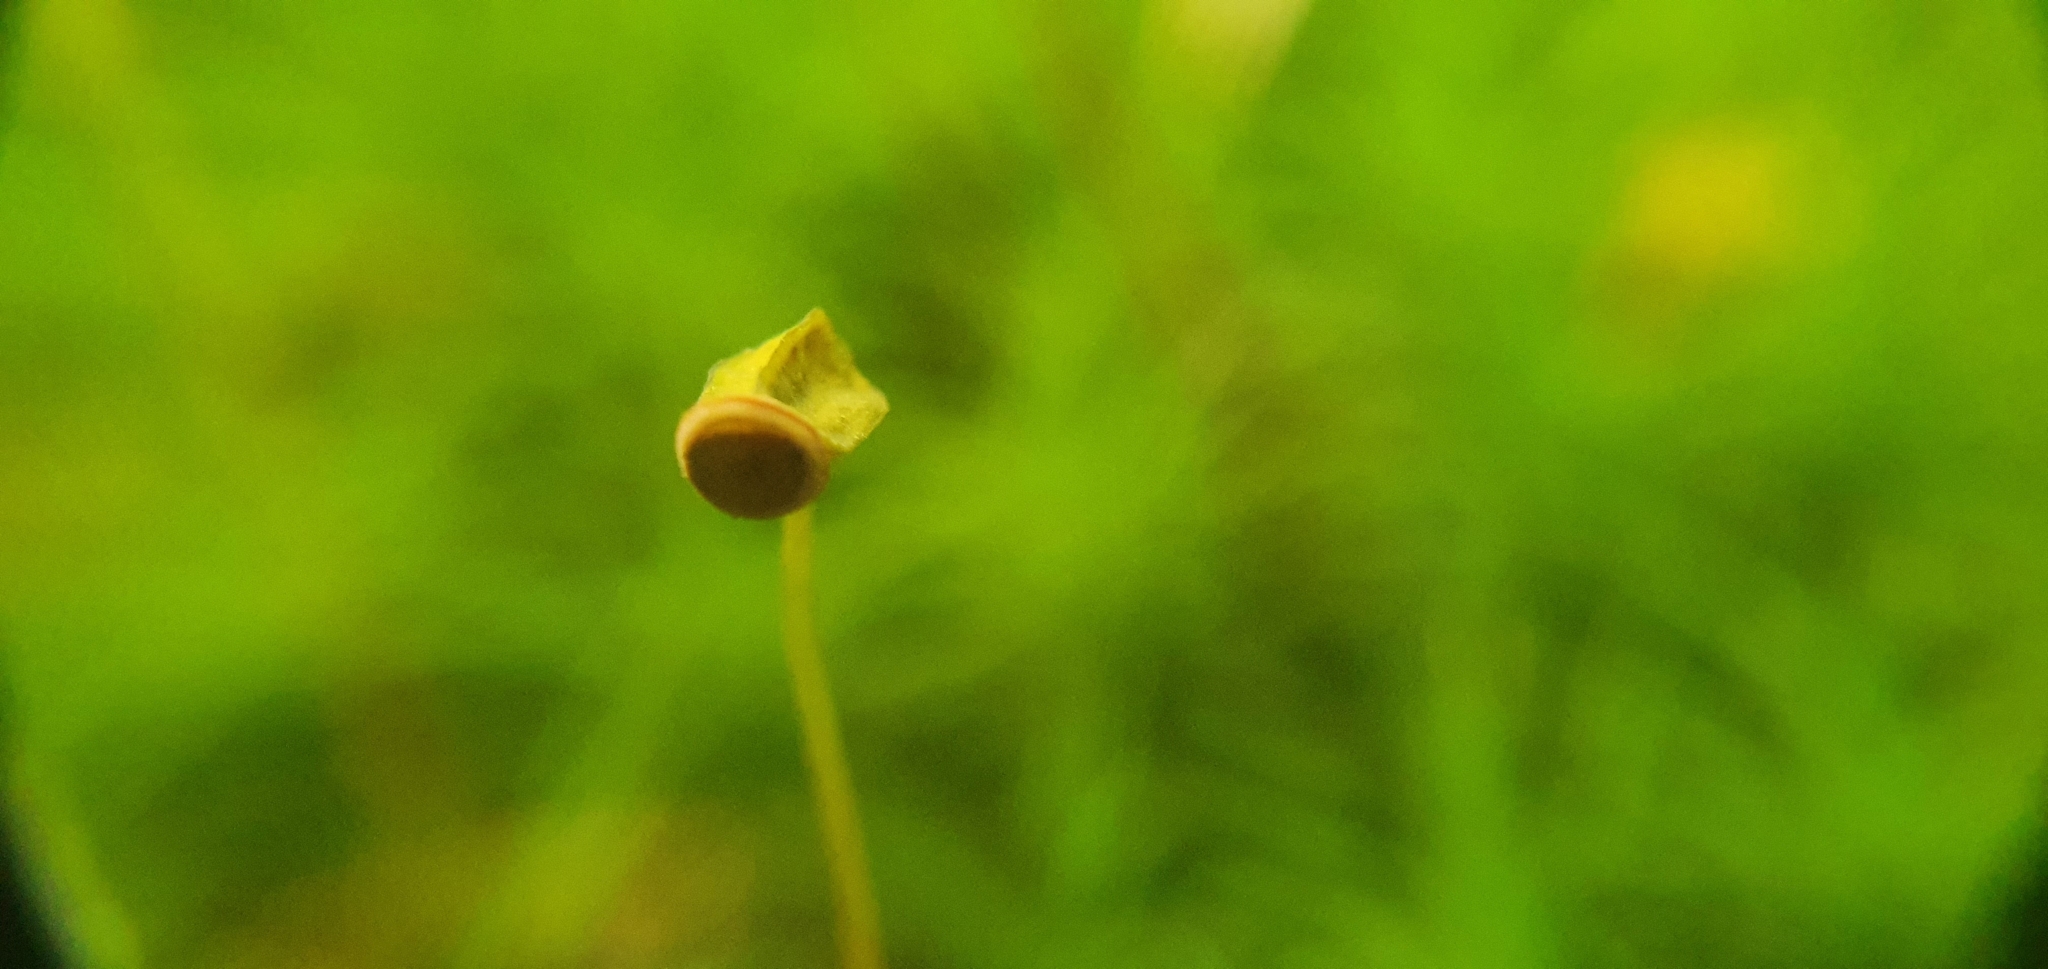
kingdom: Plantae
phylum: Bryophyta
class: Polytrichopsida
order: Polytrichales
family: Polytrichaceae
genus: Polytrichum
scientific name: Polytrichum formosum
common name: Bank haircap moss
